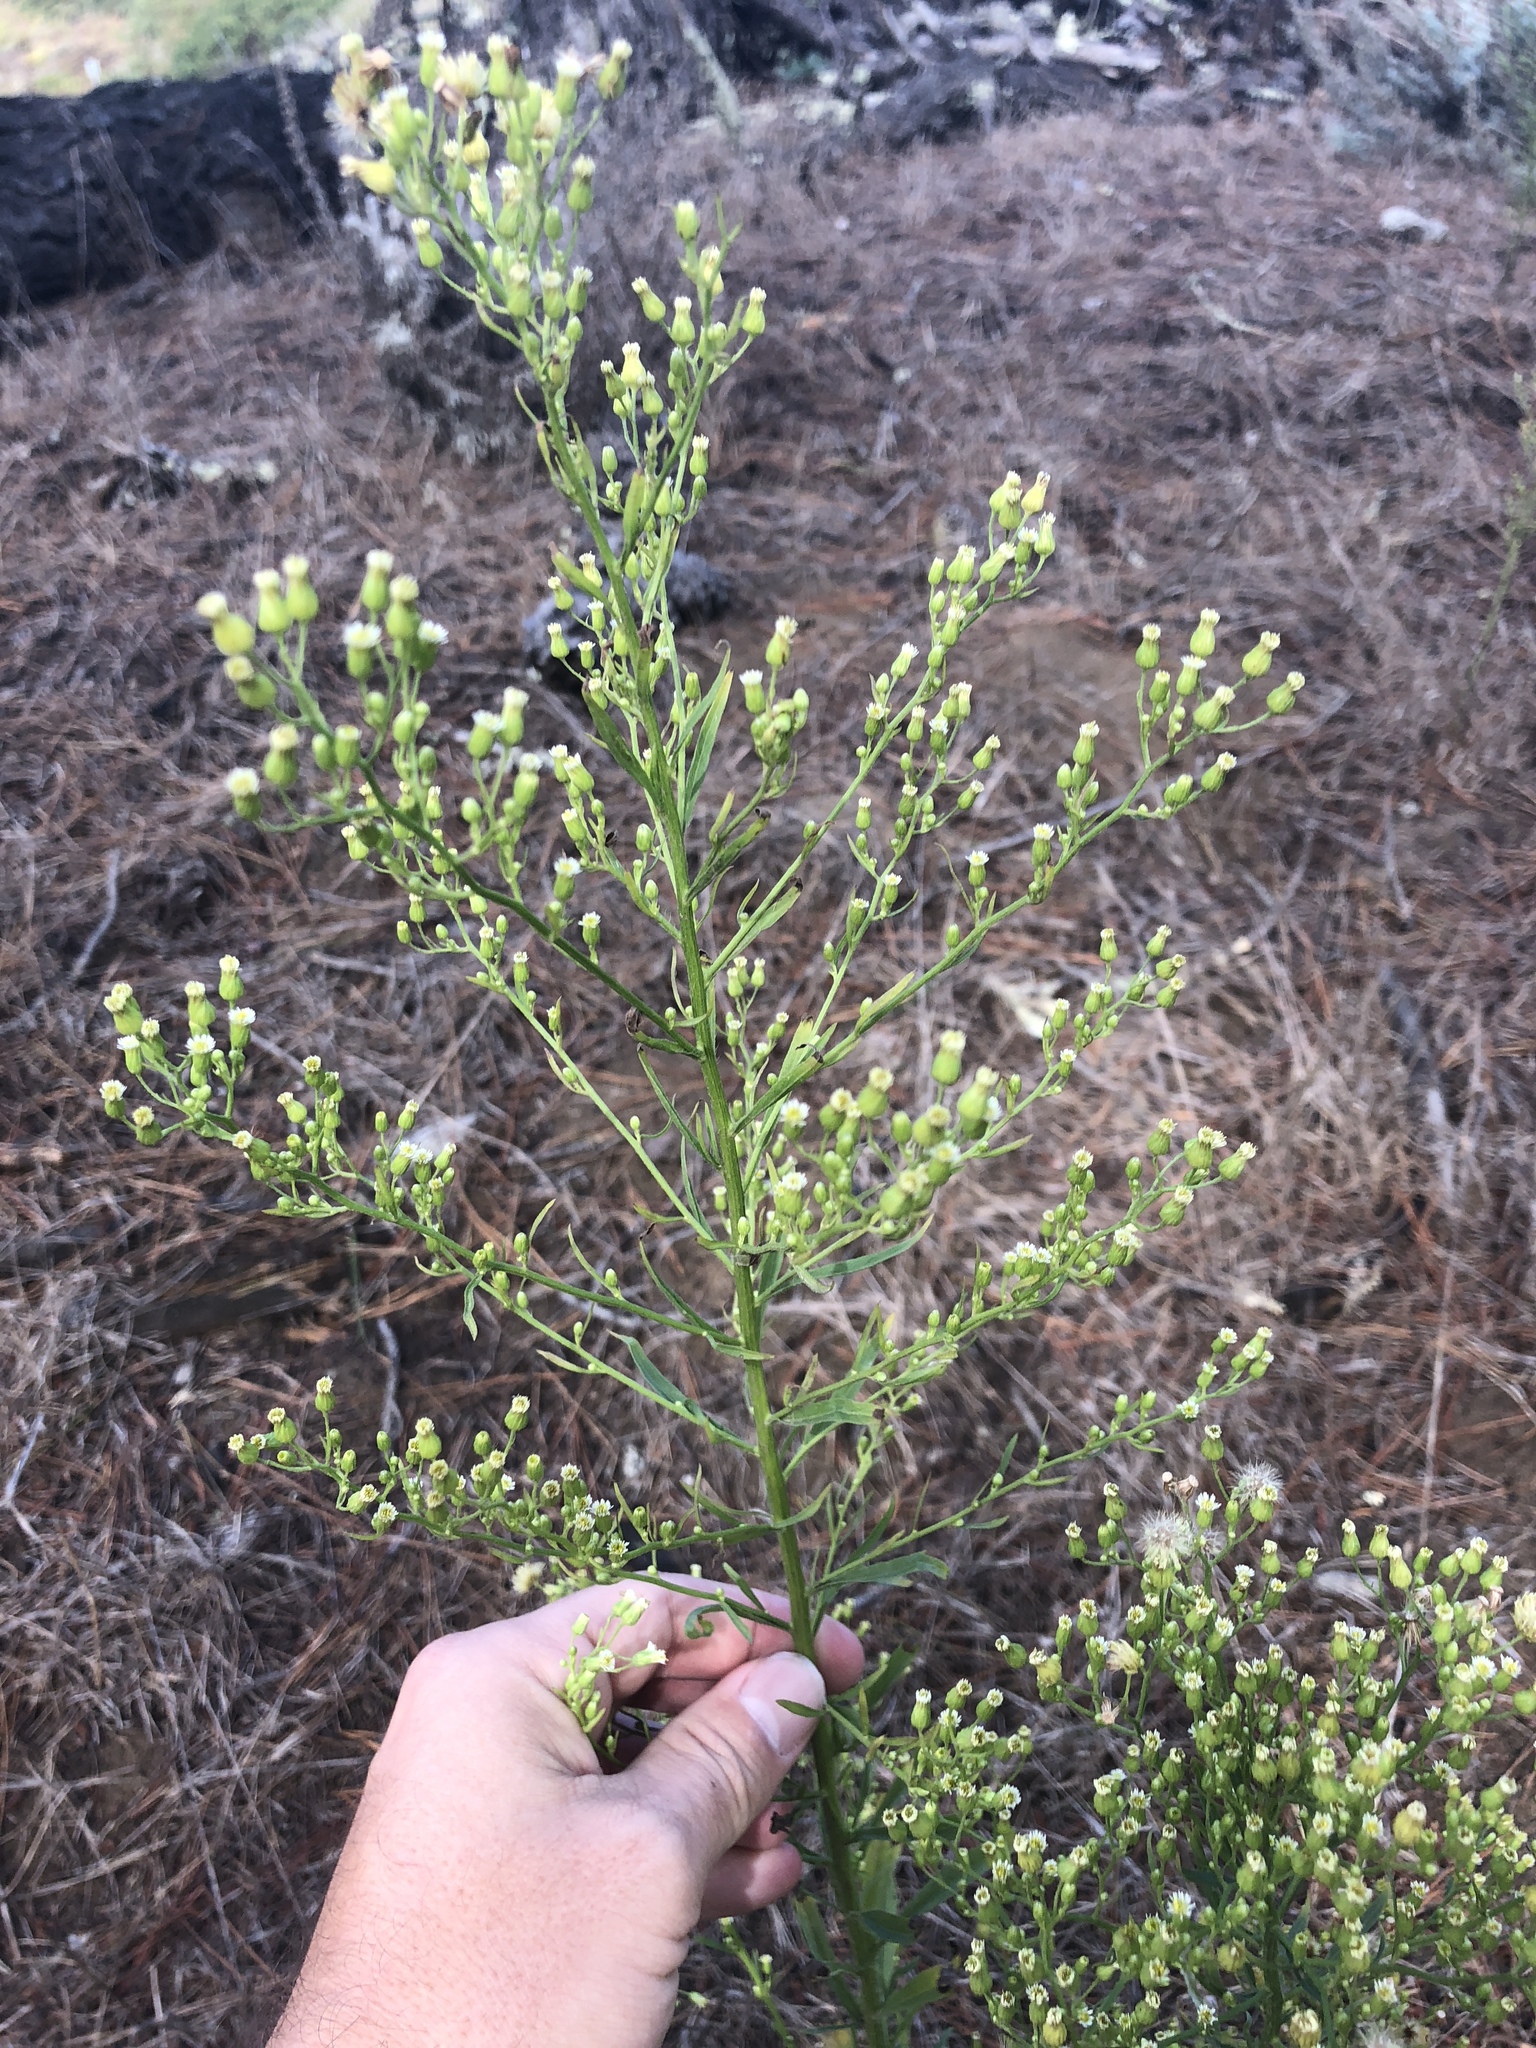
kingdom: Plantae
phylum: Tracheophyta
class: Magnoliopsida
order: Asterales
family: Asteraceae
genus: Erigeron
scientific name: Erigeron canadensis
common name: Canadian fleabane
